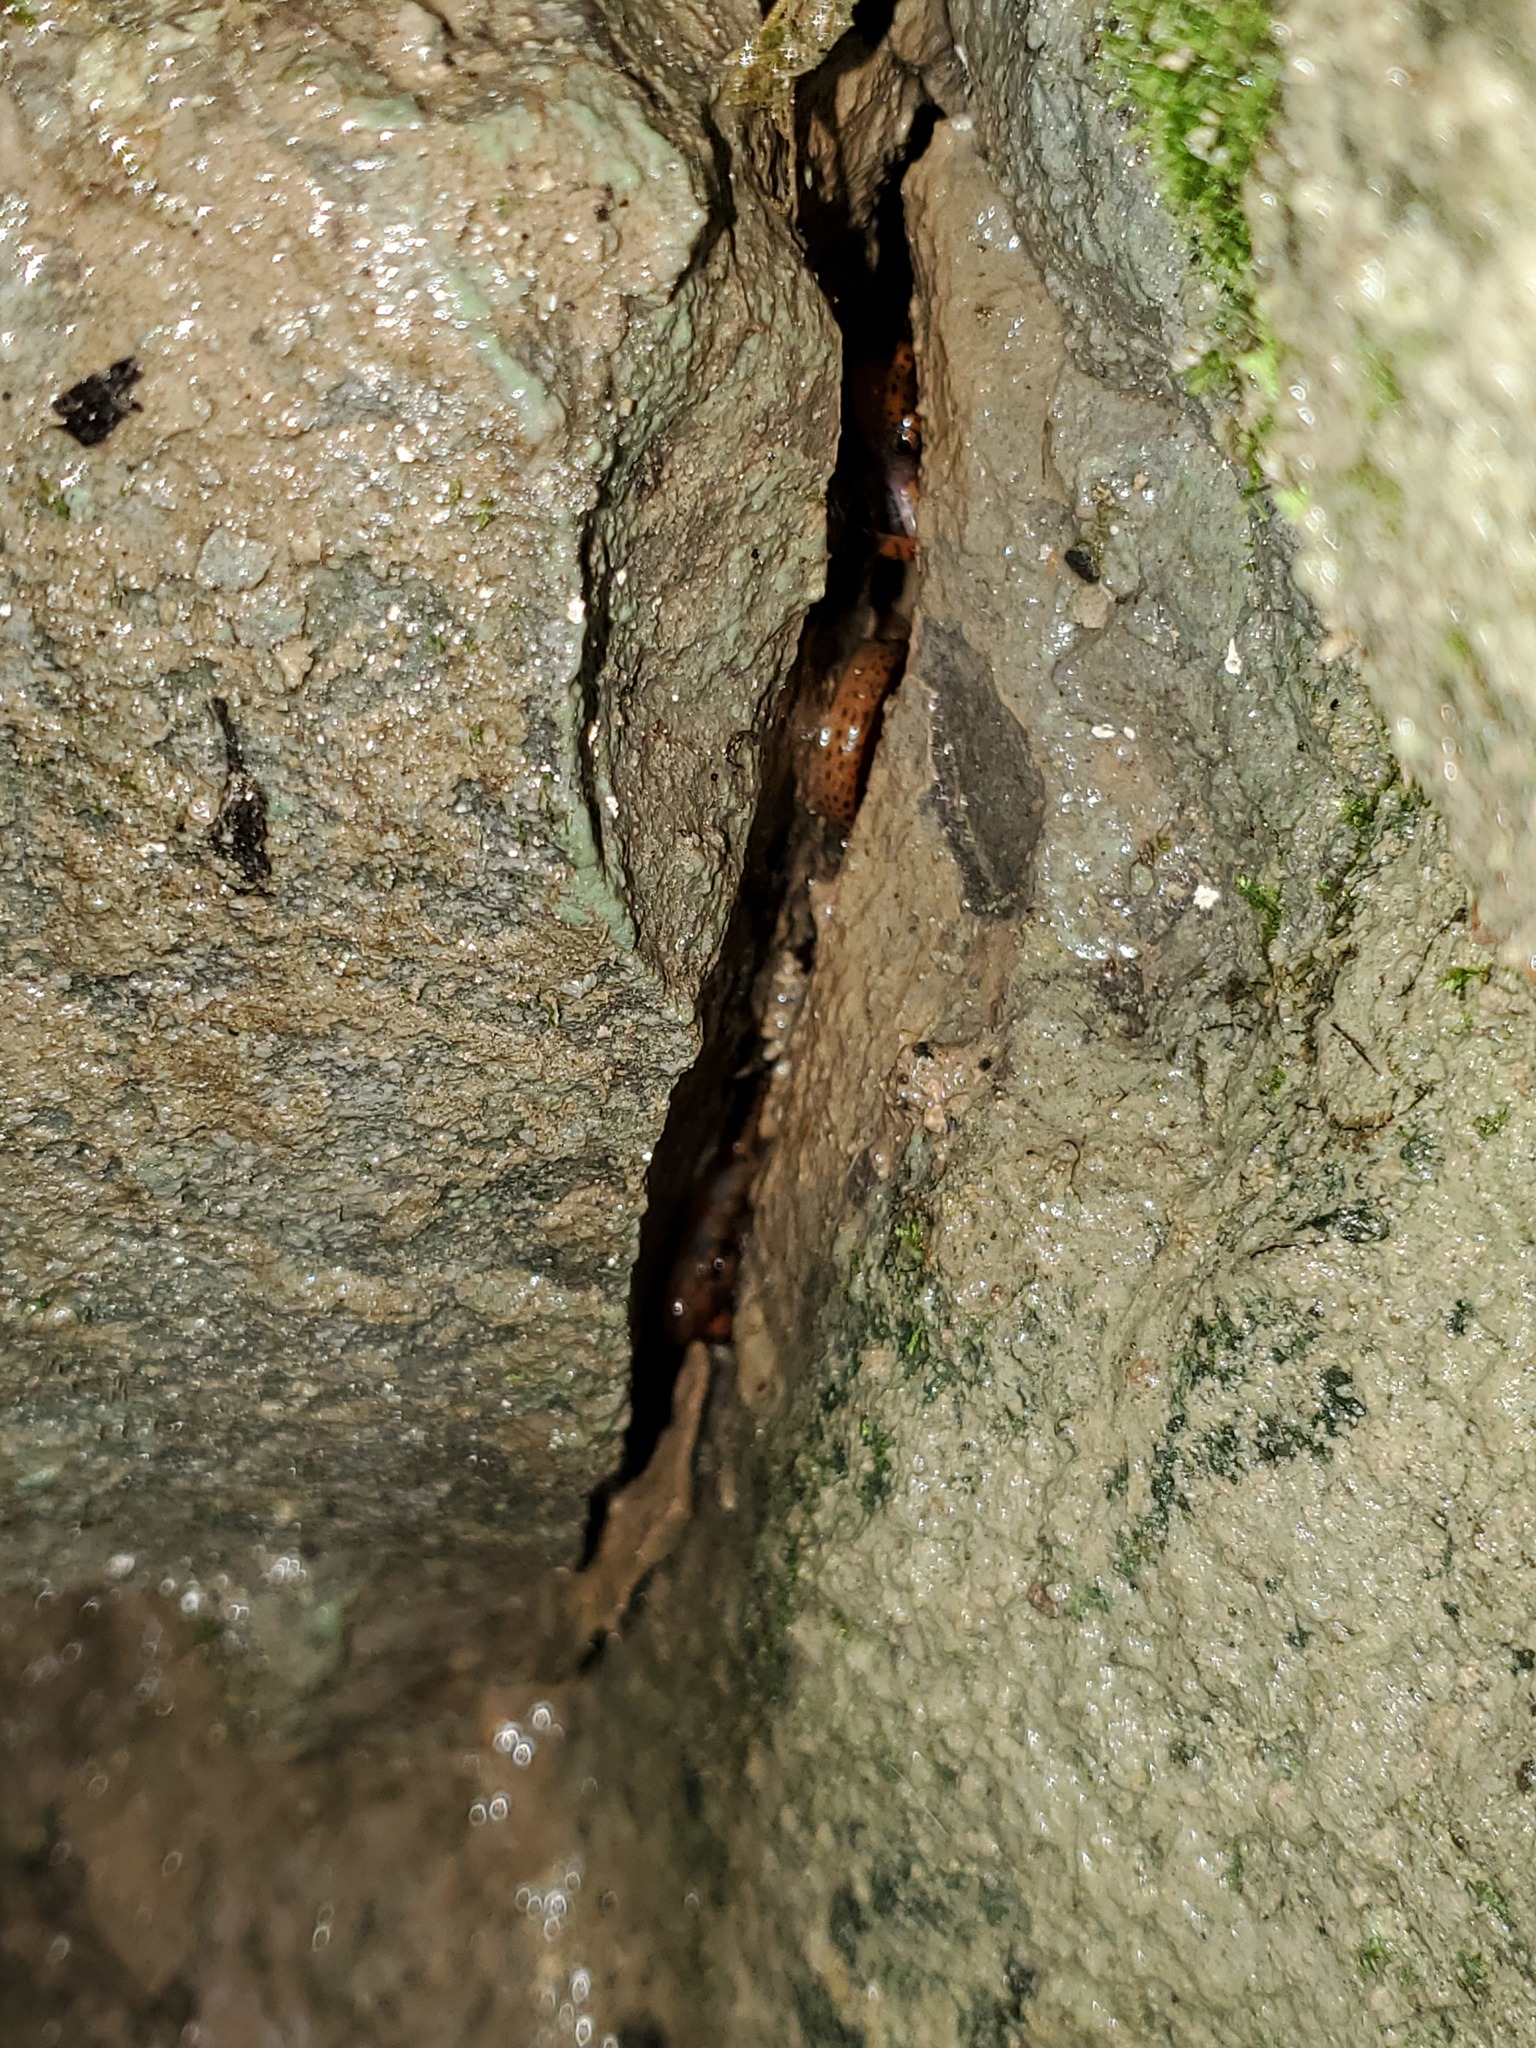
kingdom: Animalia
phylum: Chordata
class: Amphibia
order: Caudata
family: Plethodontidae
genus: Eurycea
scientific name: Eurycea lucifuga
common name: Cave salamander
